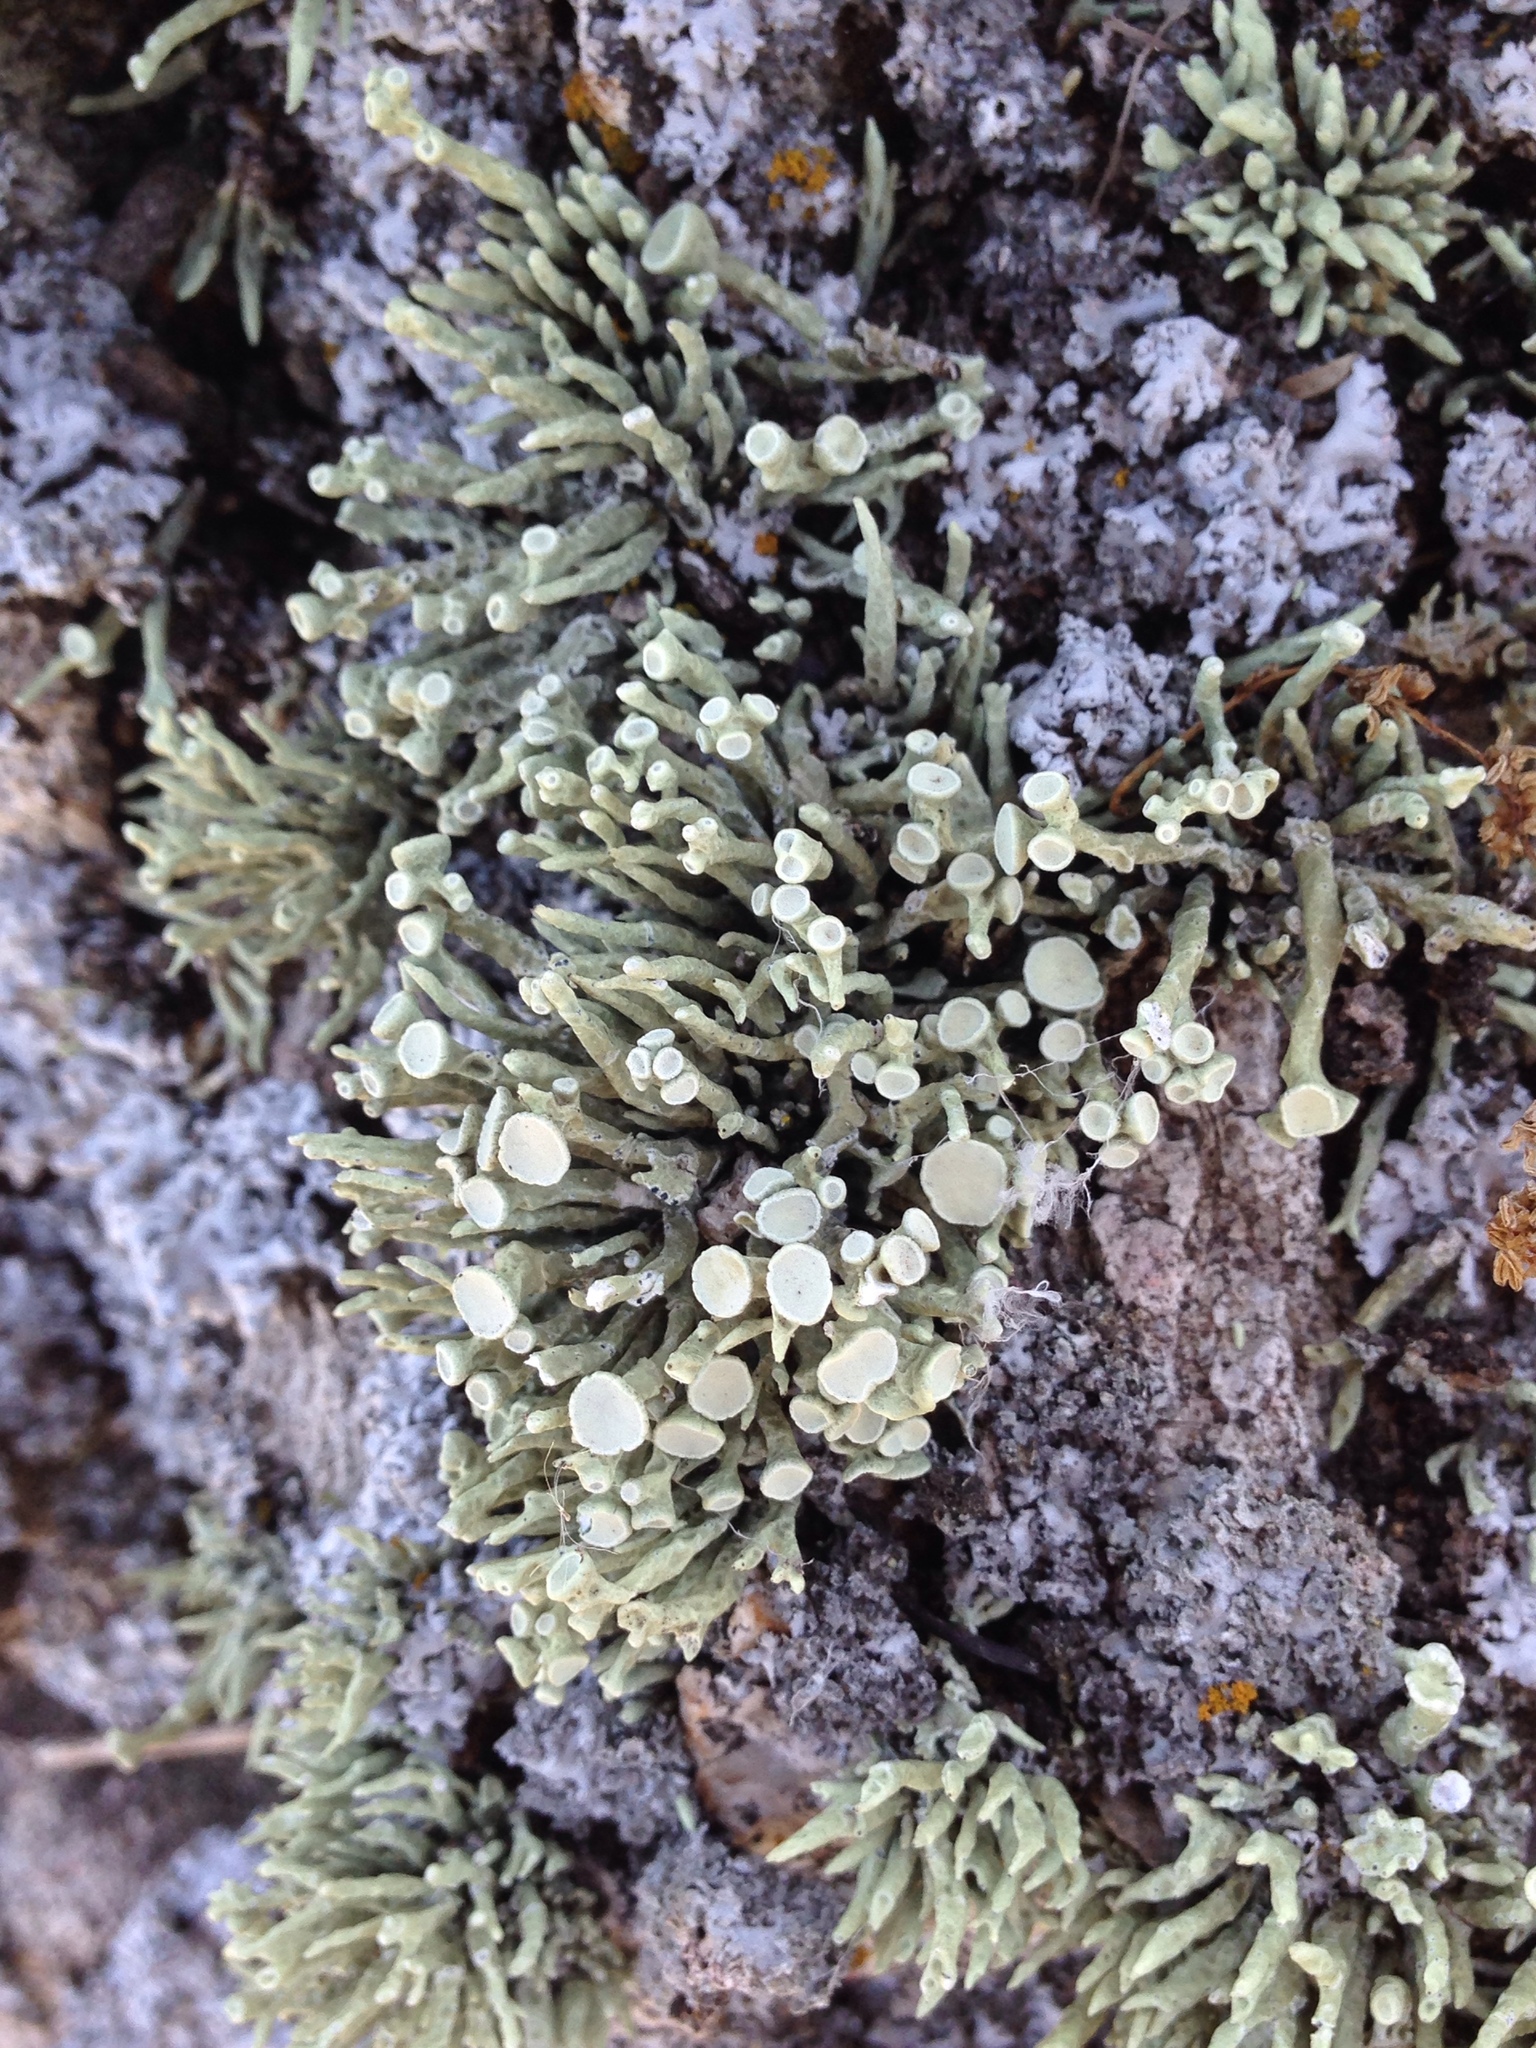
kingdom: Fungi
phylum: Ascomycota
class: Lecanoromycetes
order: Lecanorales
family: Ramalinaceae
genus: Niebla
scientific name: Niebla combeoides
